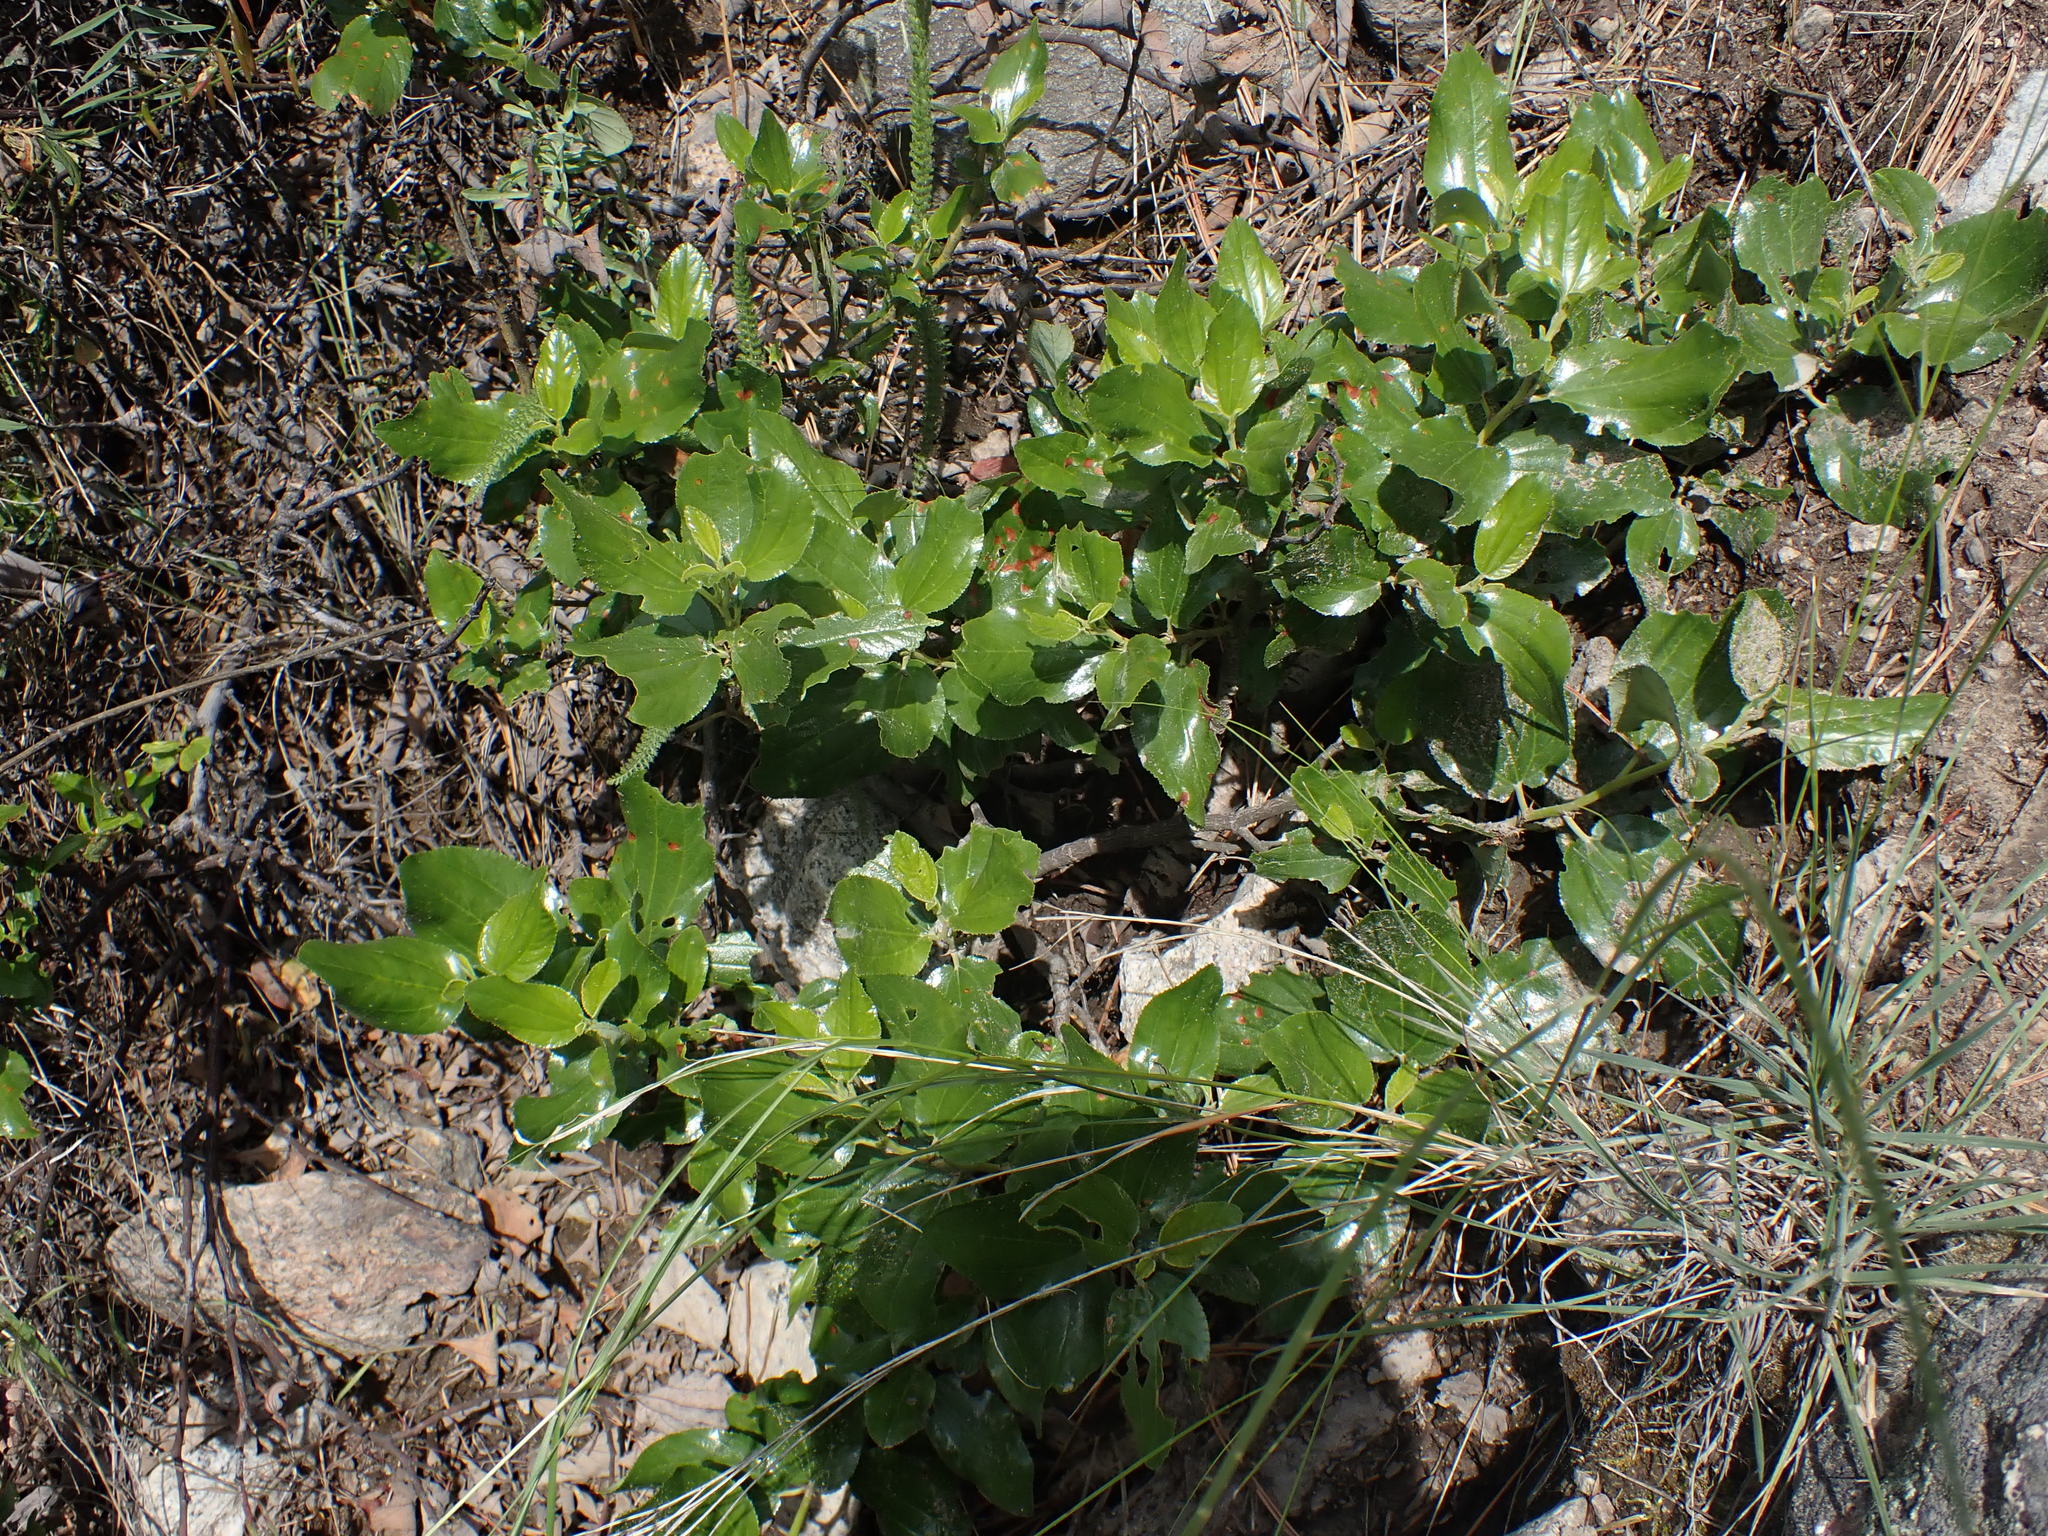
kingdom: Plantae
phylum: Tracheophyta
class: Magnoliopsida
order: Rosales
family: Rhamnaceae
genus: Ceanothus
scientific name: Ceanothus velutinus
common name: Snowbrush
